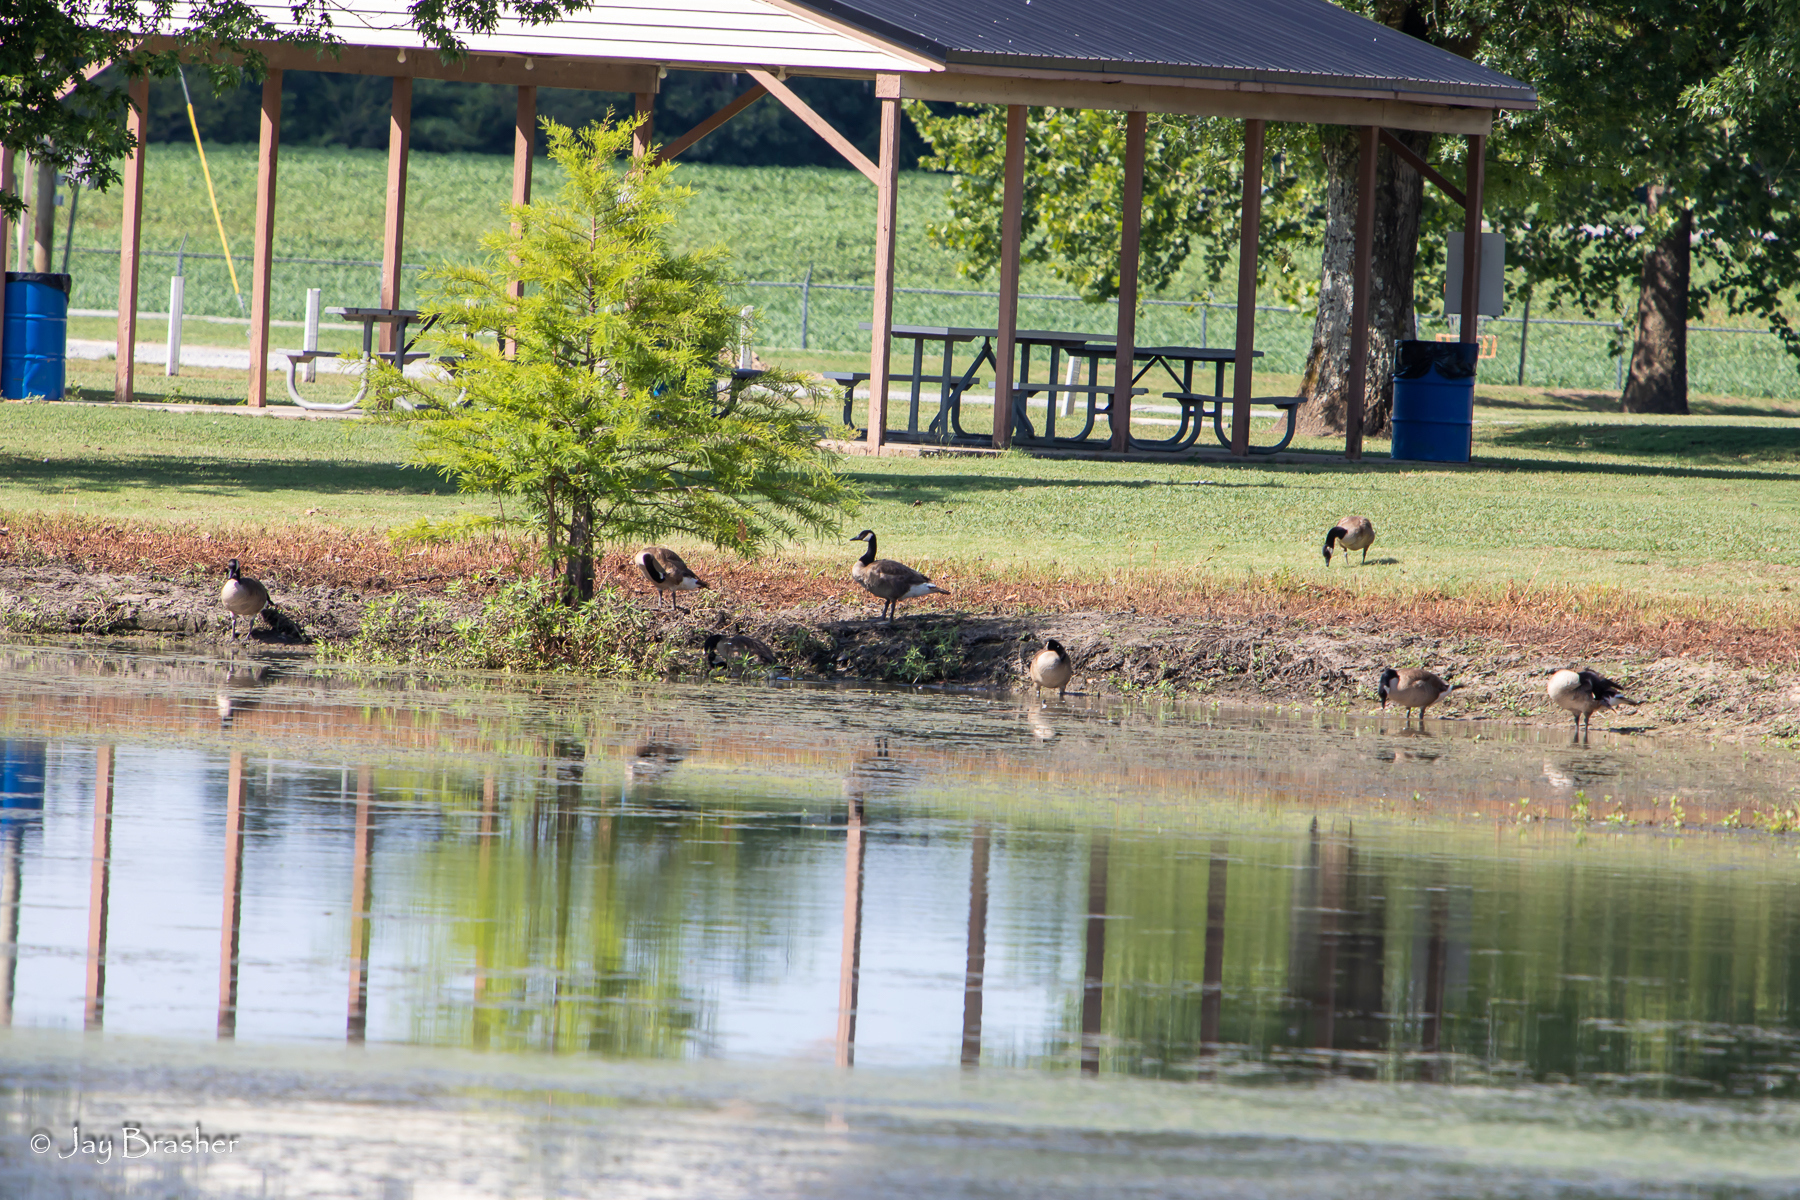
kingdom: Animalia
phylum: Chordata
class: Aves
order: Anseriformes
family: Anatidae
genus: Branta
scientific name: Branta canadensis
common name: Canada goose
